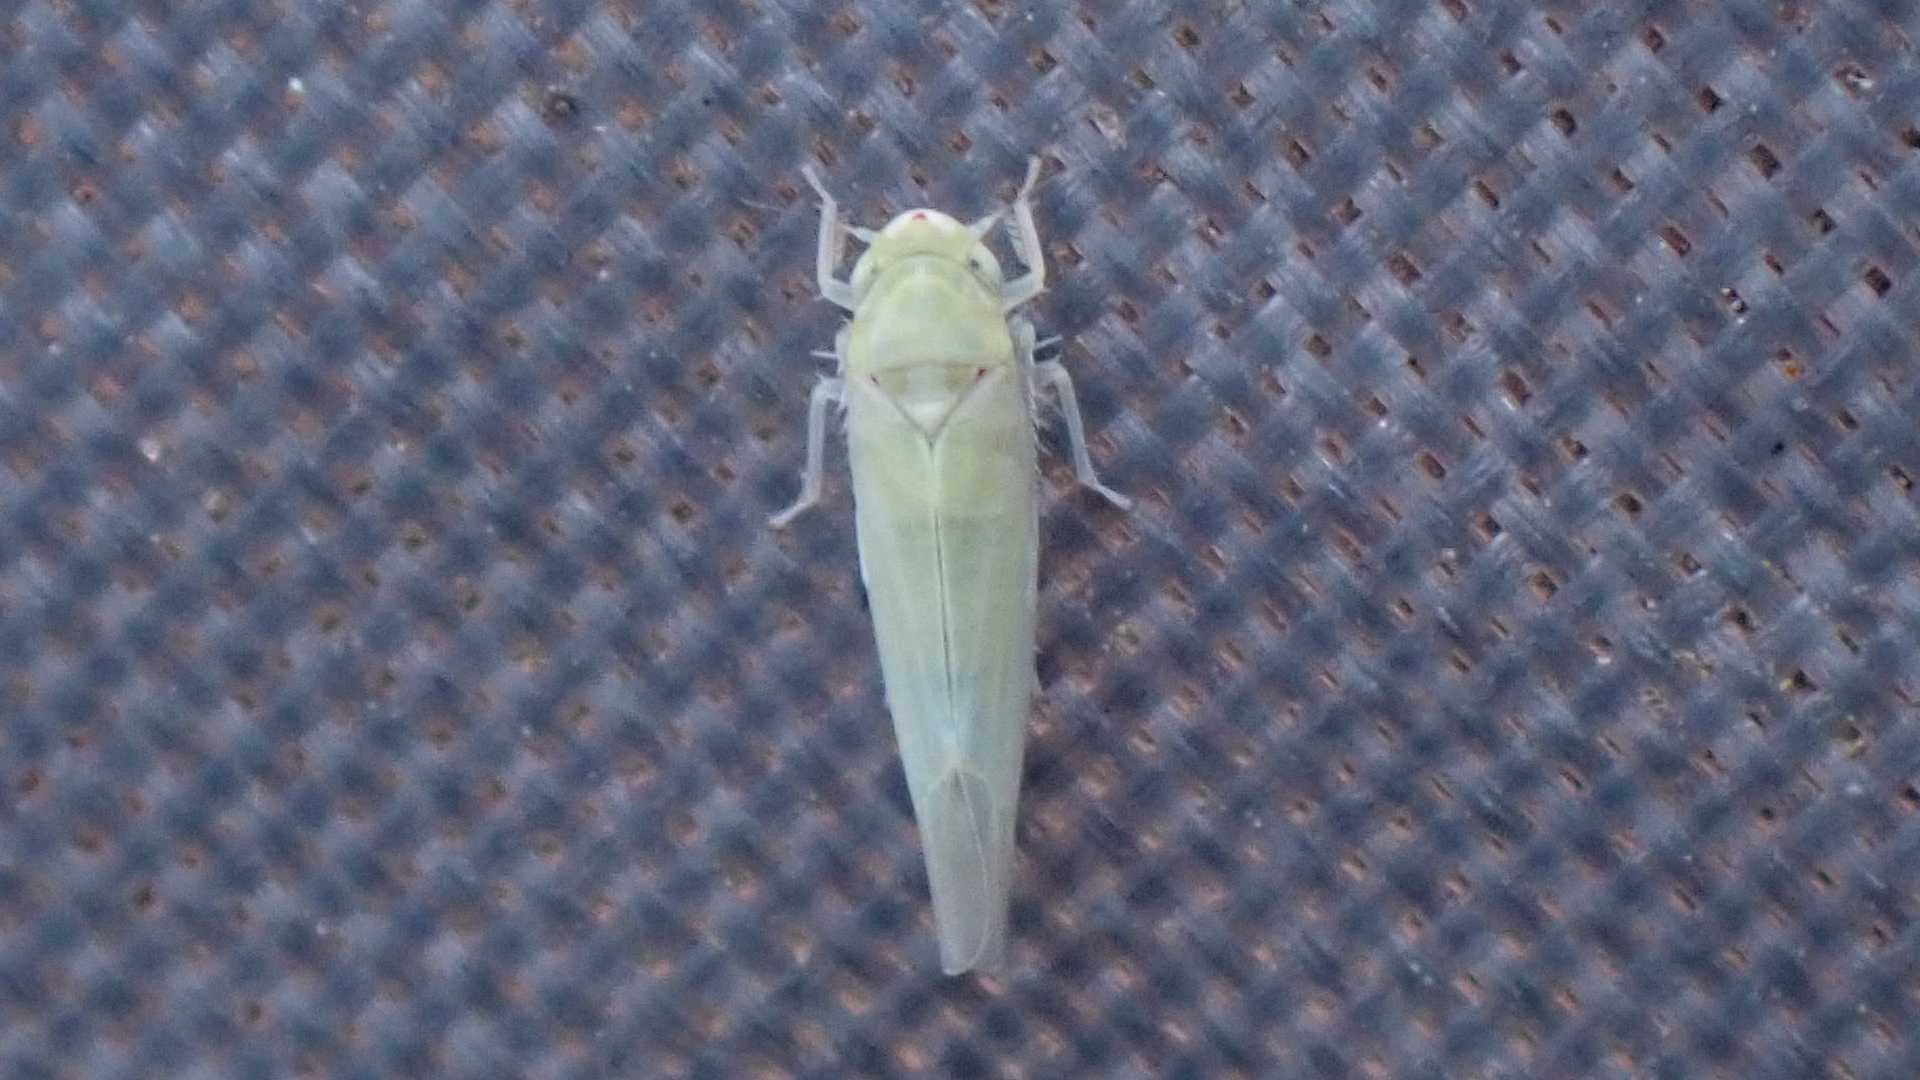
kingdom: Animalia
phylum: Arthropoda
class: Insecta
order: Hemiptera
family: Cicadellidae
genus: Zygina
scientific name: Zygina nivea
